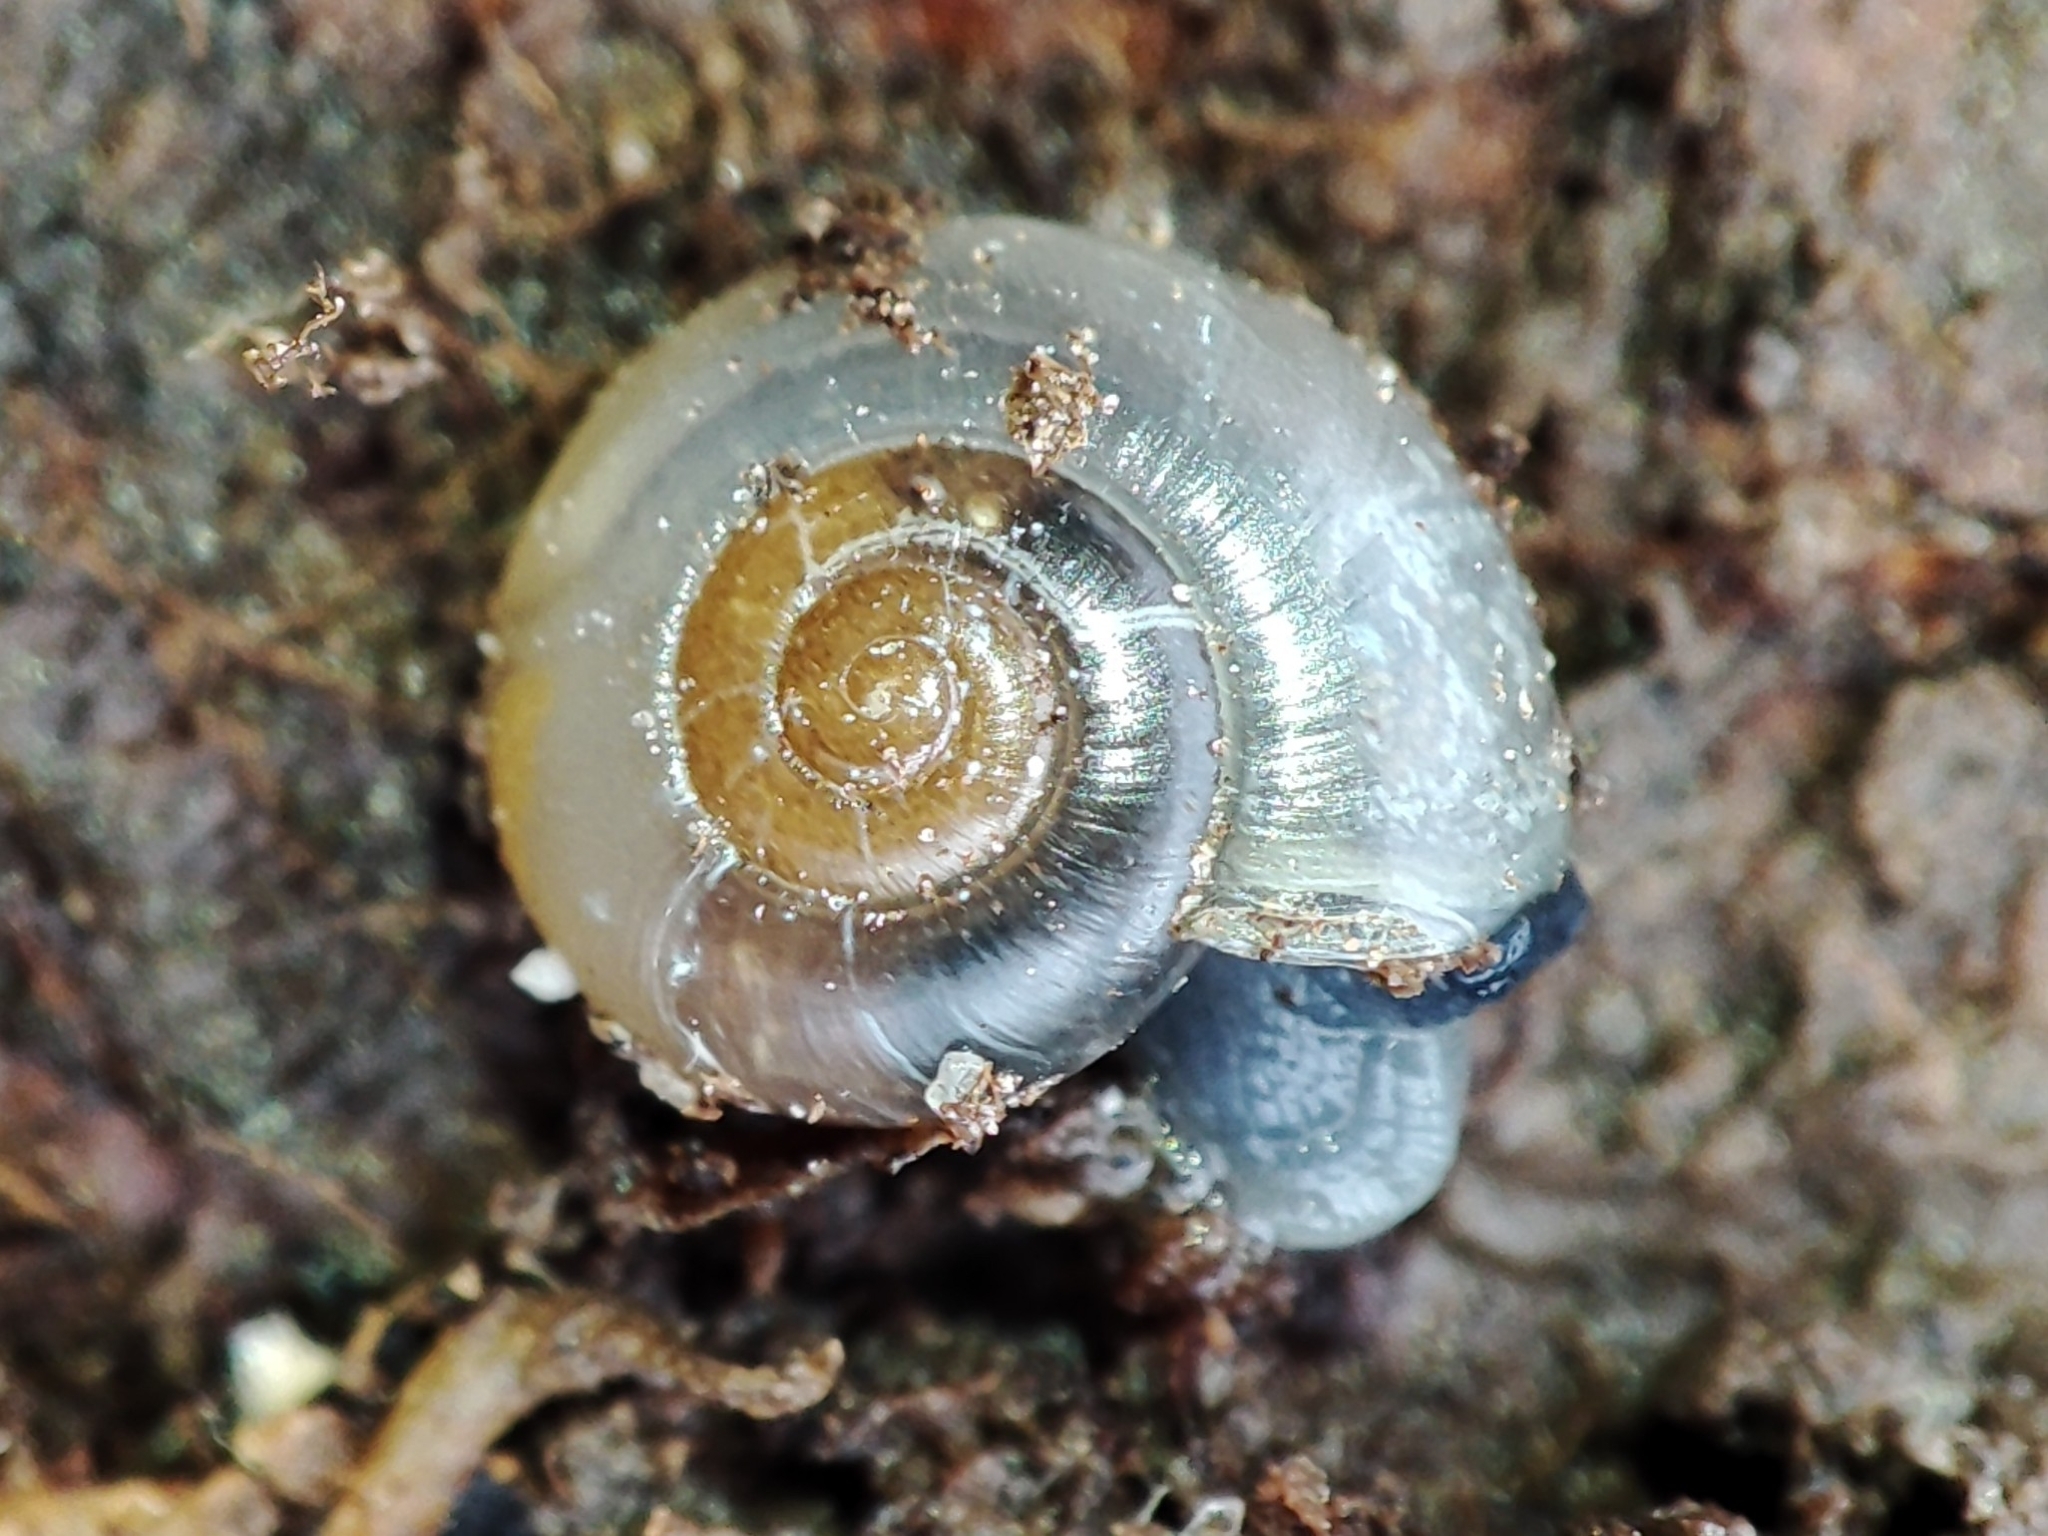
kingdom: Animalia
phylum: Mollusca
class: Gastropoda
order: Stylommatophora
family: Gastrodontidae
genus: Aegopinella
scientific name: Aegopinella minor
